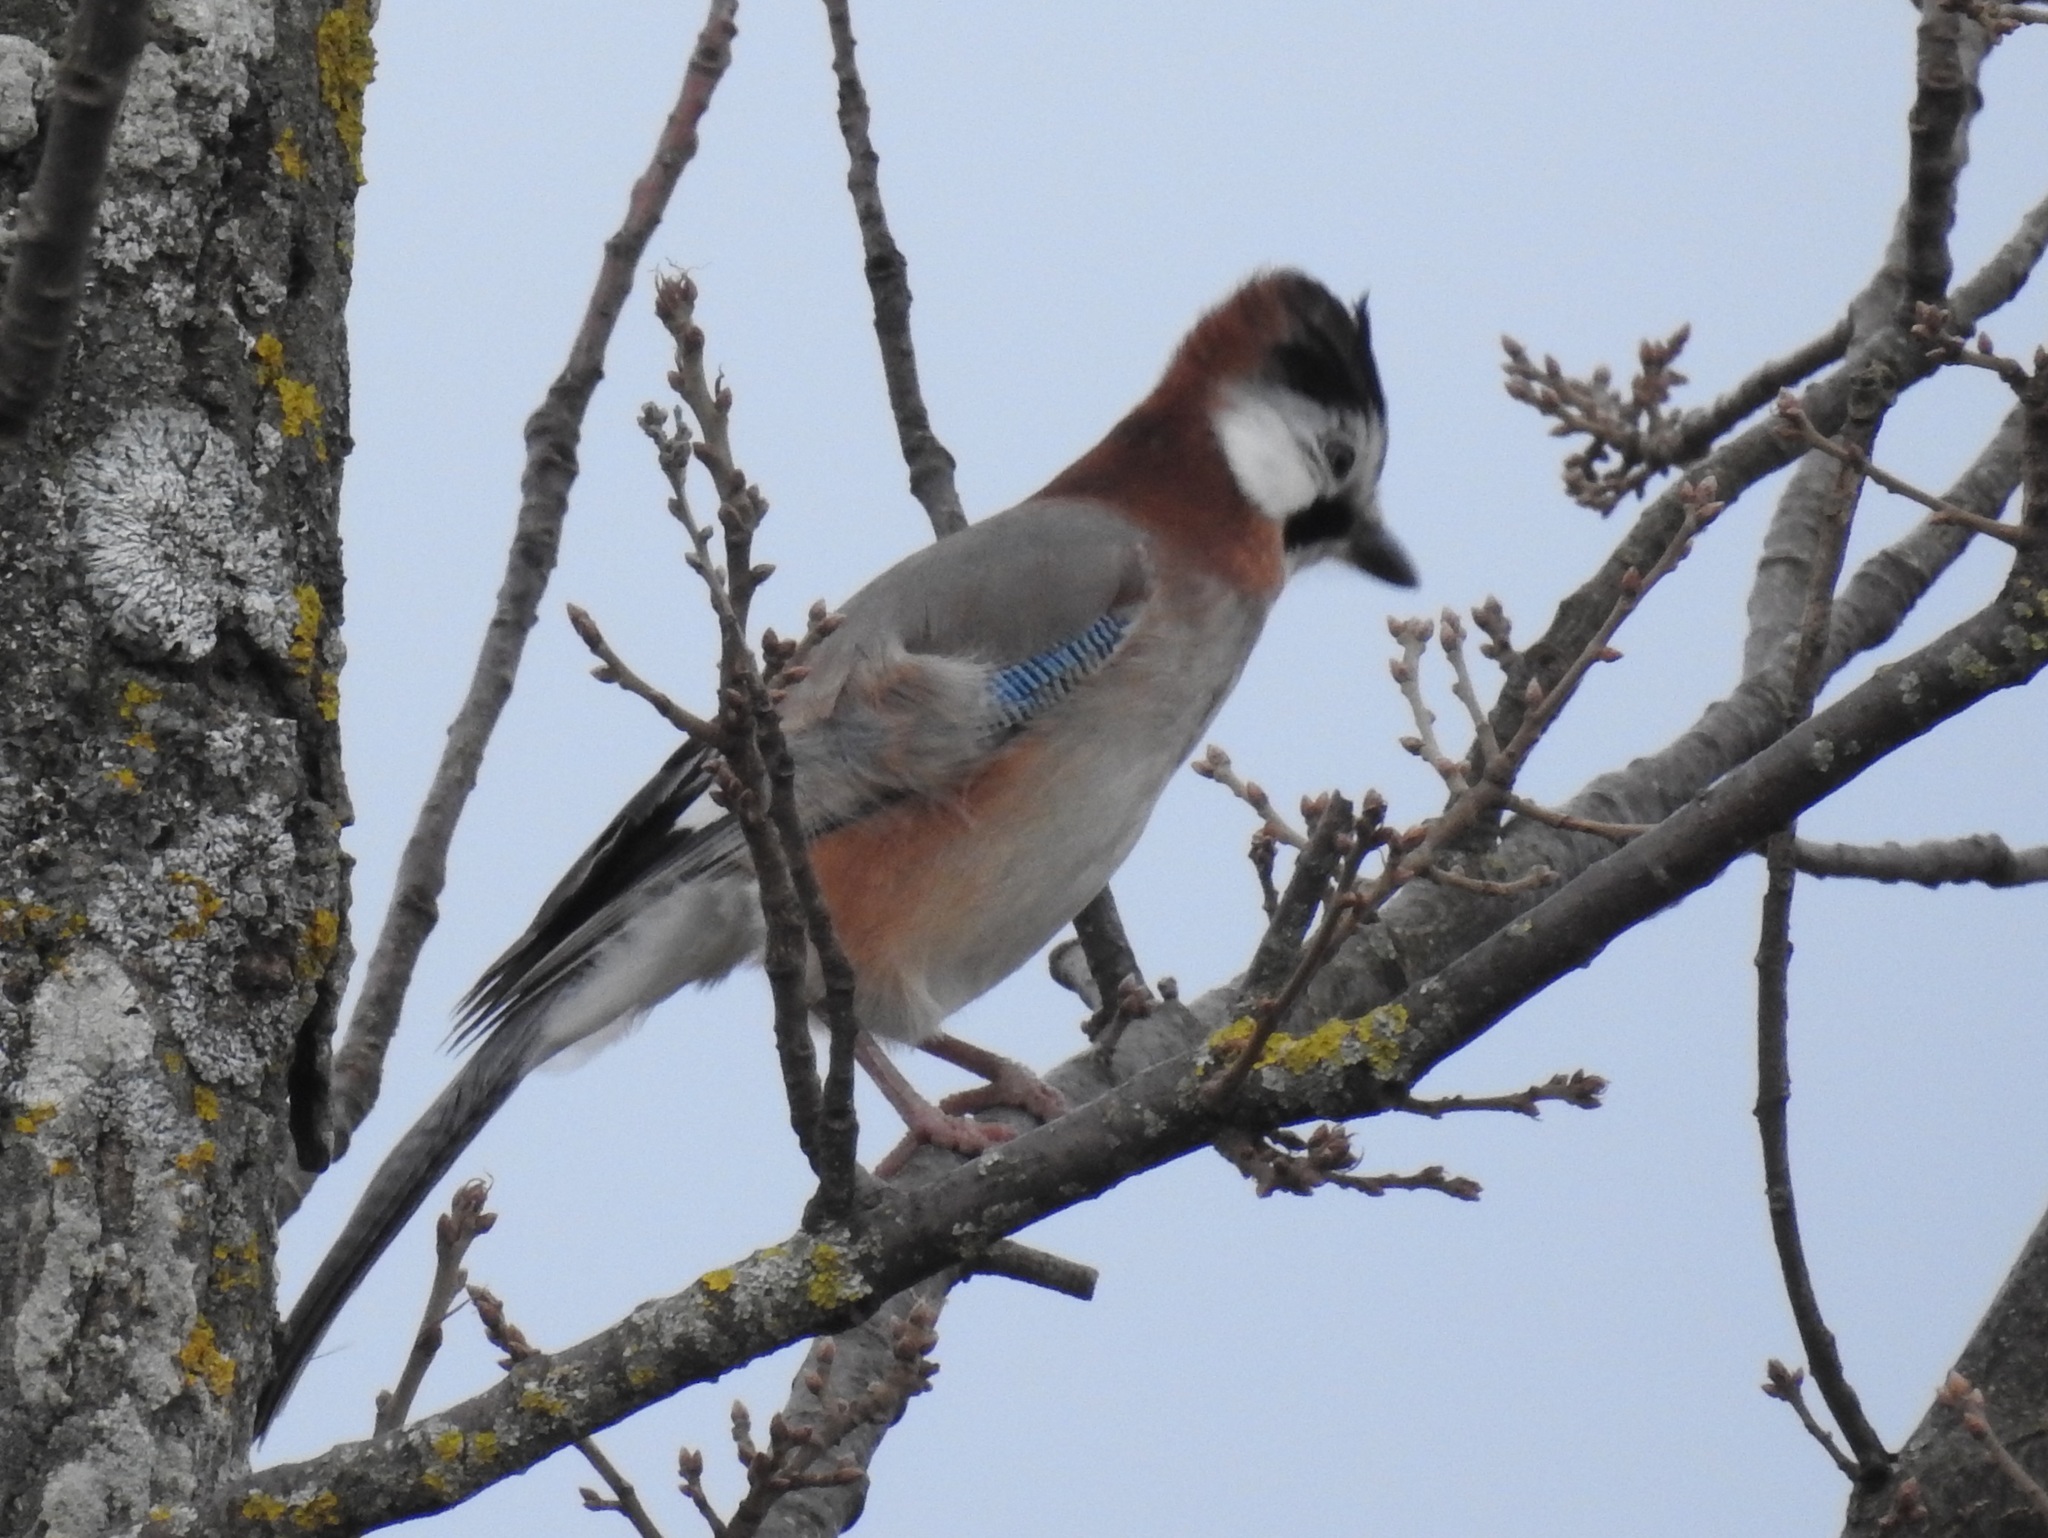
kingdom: Animalia
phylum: Chordata
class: Aves
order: Passeriformes
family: Corvidae
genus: Garrulus
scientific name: Garrulus glandarius
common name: Eurasian jay
